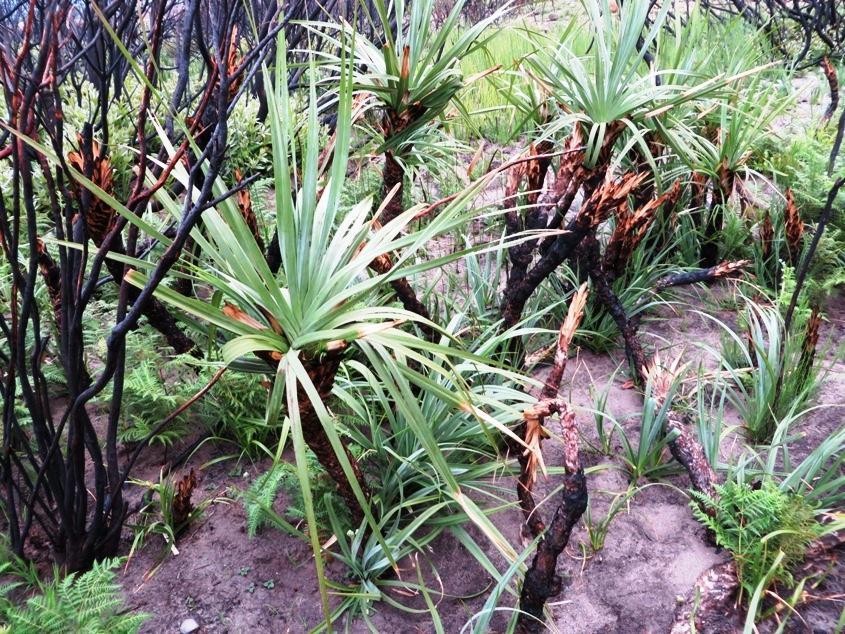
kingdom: Plantae
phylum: Tracheophyta
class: Liliopsida
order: Poales
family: Thurniaceae
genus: Prionium
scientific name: Prionium serratum
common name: Palmiet
